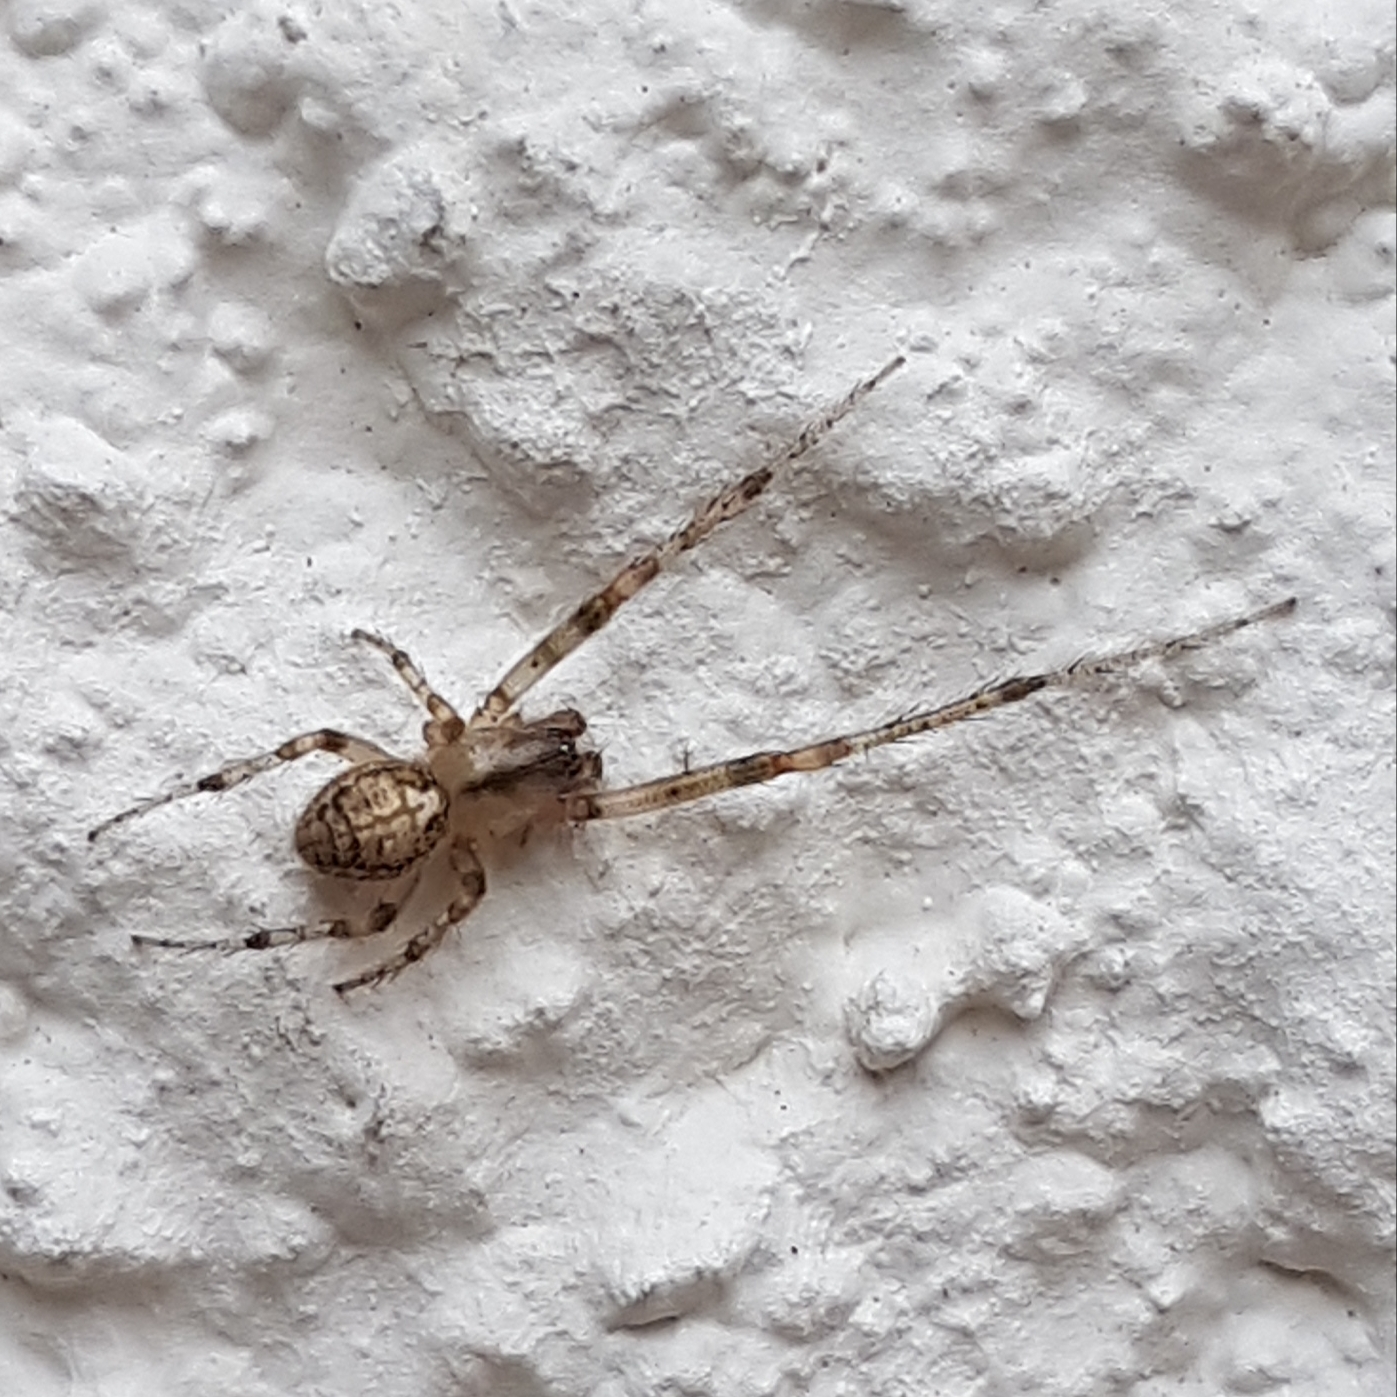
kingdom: Animalia
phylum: Arthropoda
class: Arachnida
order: Araneae
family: Araneidae
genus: Zygiella
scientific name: Zygiella x-notata
